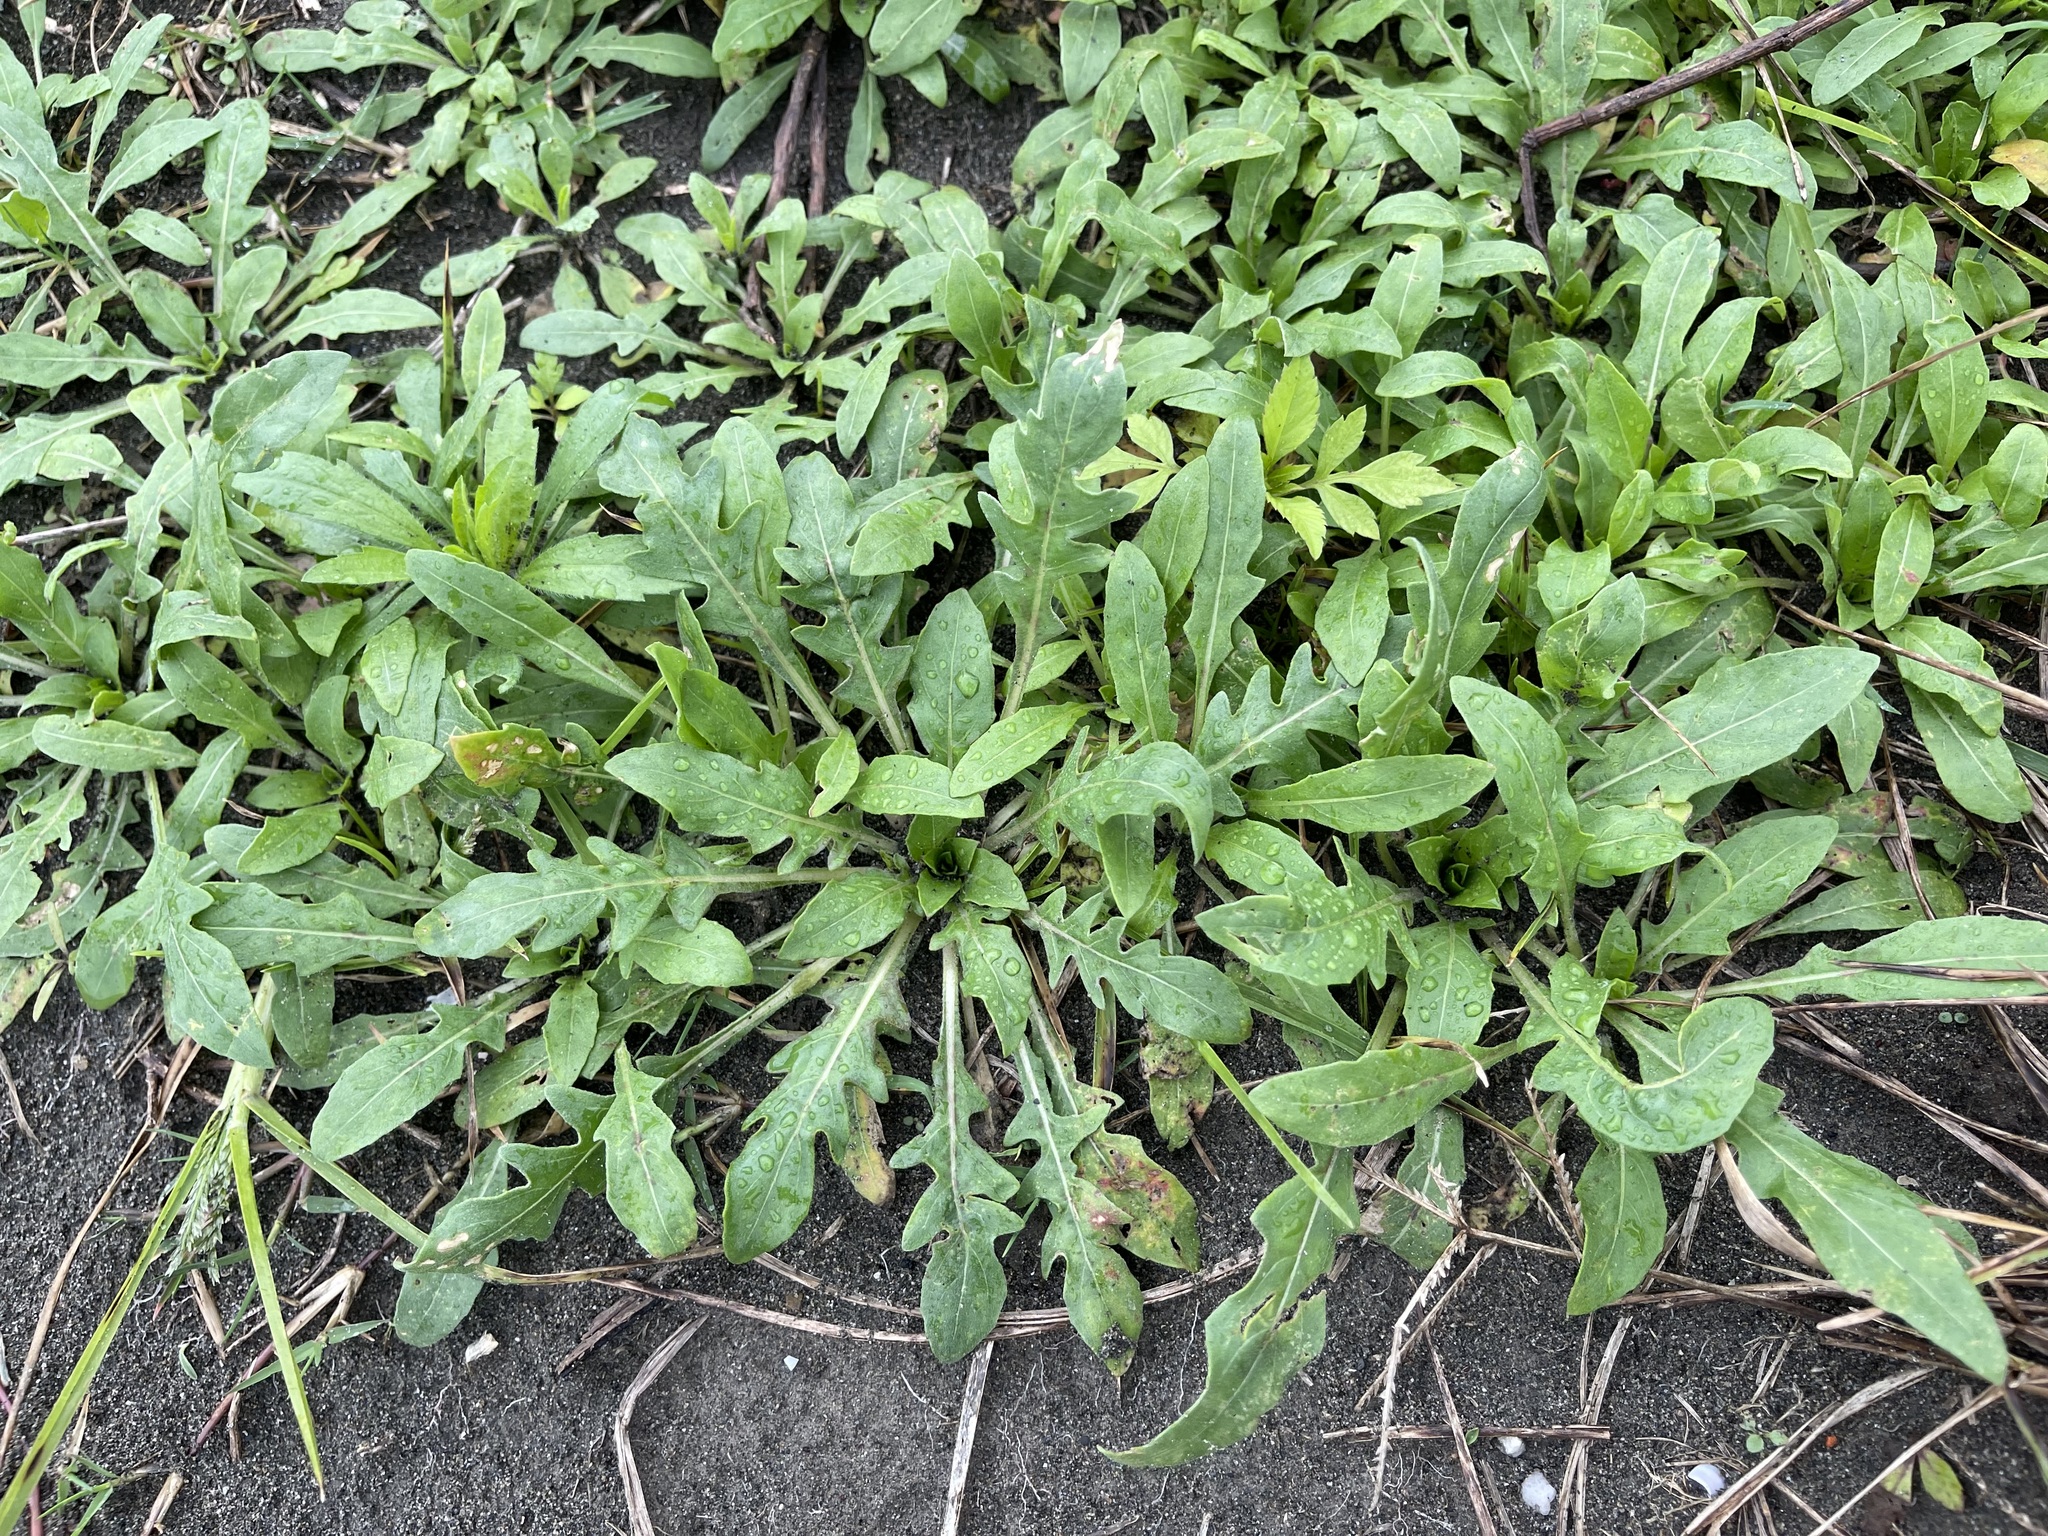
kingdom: Plantae
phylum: Tracheophyta
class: Magnoliopsida
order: Myrtales
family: Onagraceae
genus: Oenothera
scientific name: Oenothera laciniata
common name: Cut-leaved evening-primrose
